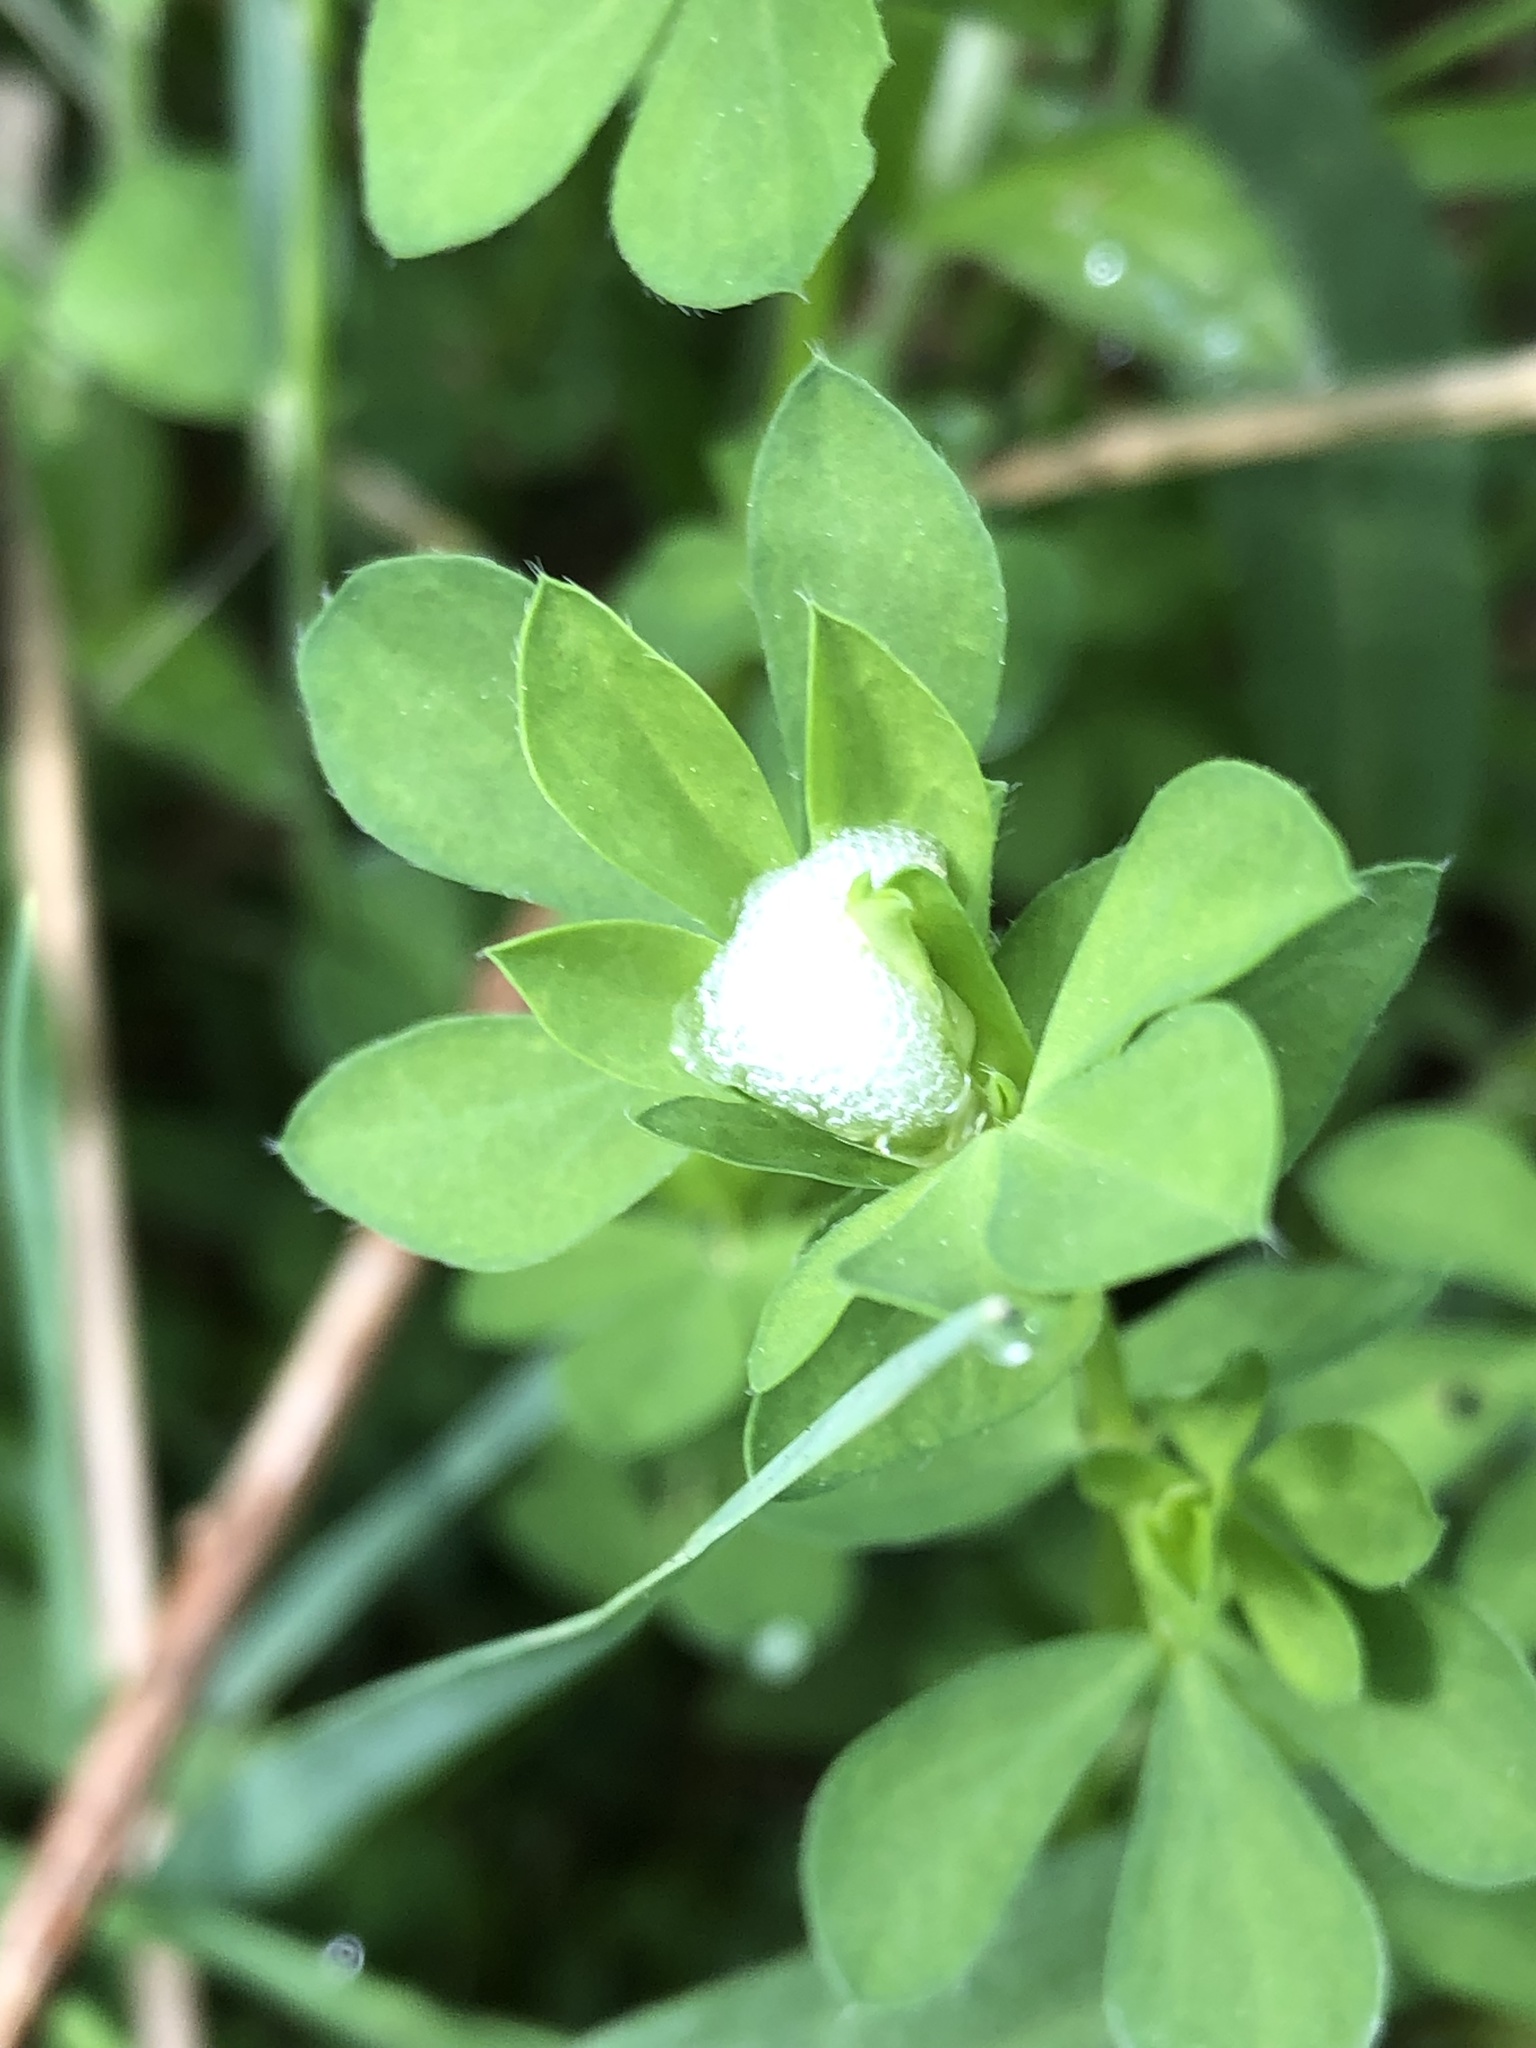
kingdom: Animalia
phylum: Arthropoda
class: Insecta
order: Hemiptera
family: Aphrophoridae
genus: Philaenus
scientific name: Philaenus spumarius
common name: Meadow spittlebug
